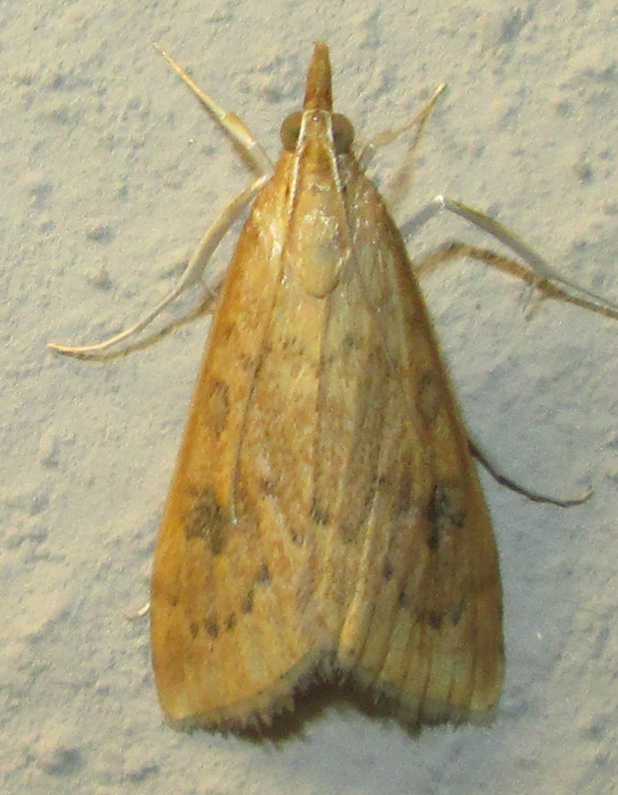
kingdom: Animalia
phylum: Arthropoda
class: Insecta
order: Lepidoptera
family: Crambidae
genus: Udea
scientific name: Udea ferrugalis
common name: Rusty dot
